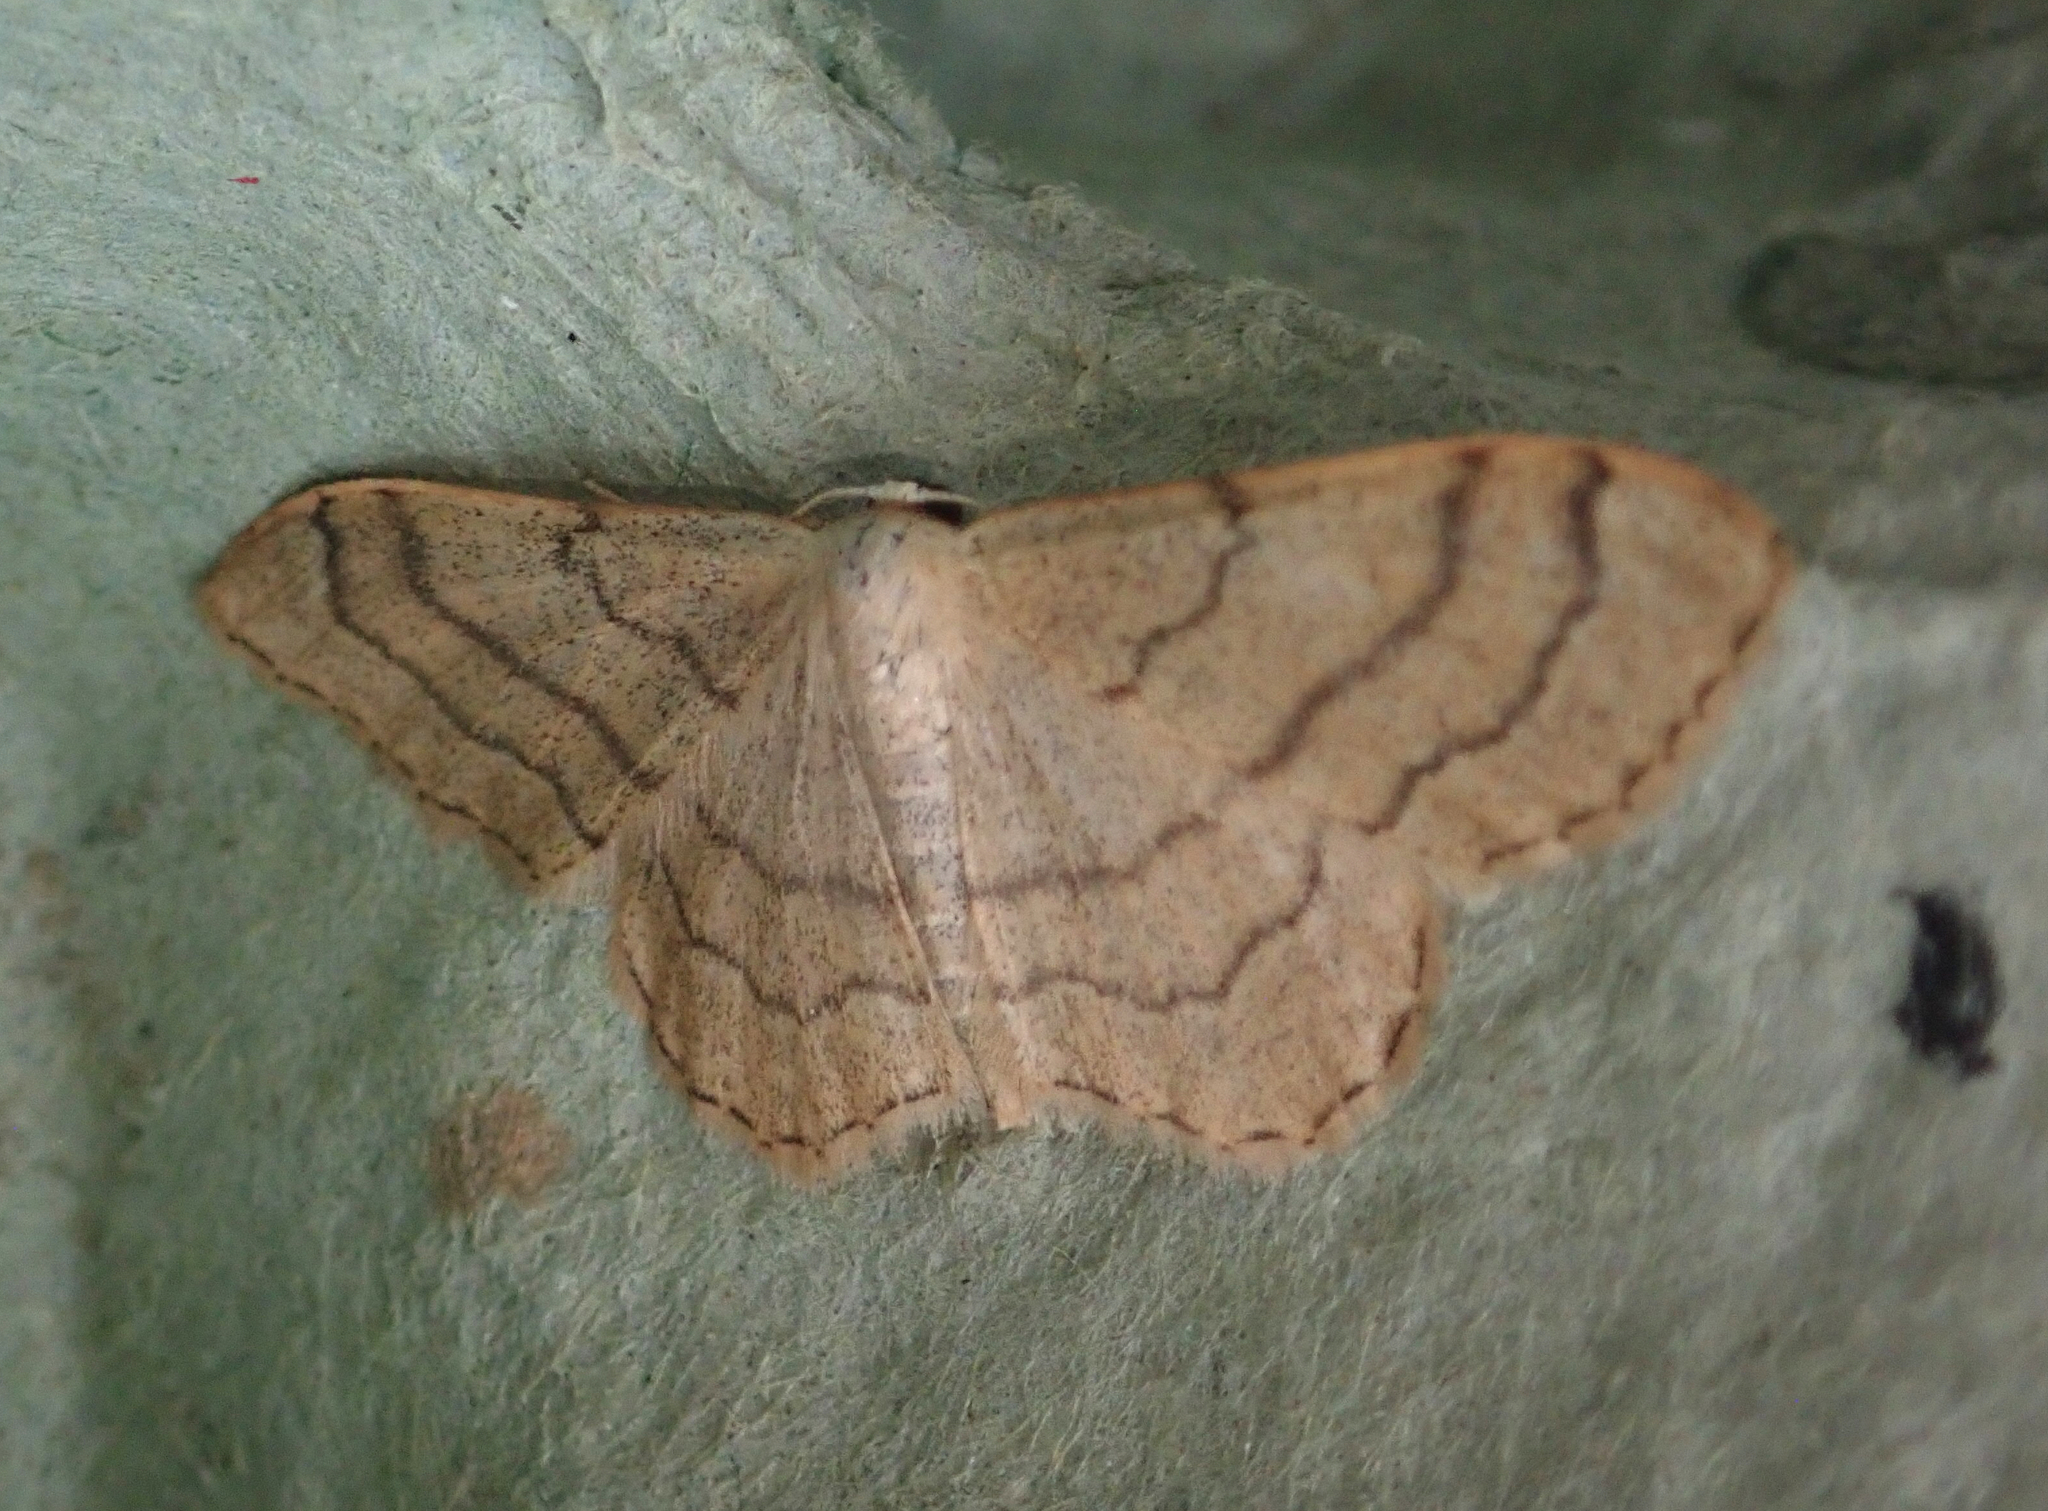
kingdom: Animalia
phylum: Arthropoda
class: Insecta
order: Lepidoptera
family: Geometridae
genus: Idaea
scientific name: Idaea aversata
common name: Riband wave
